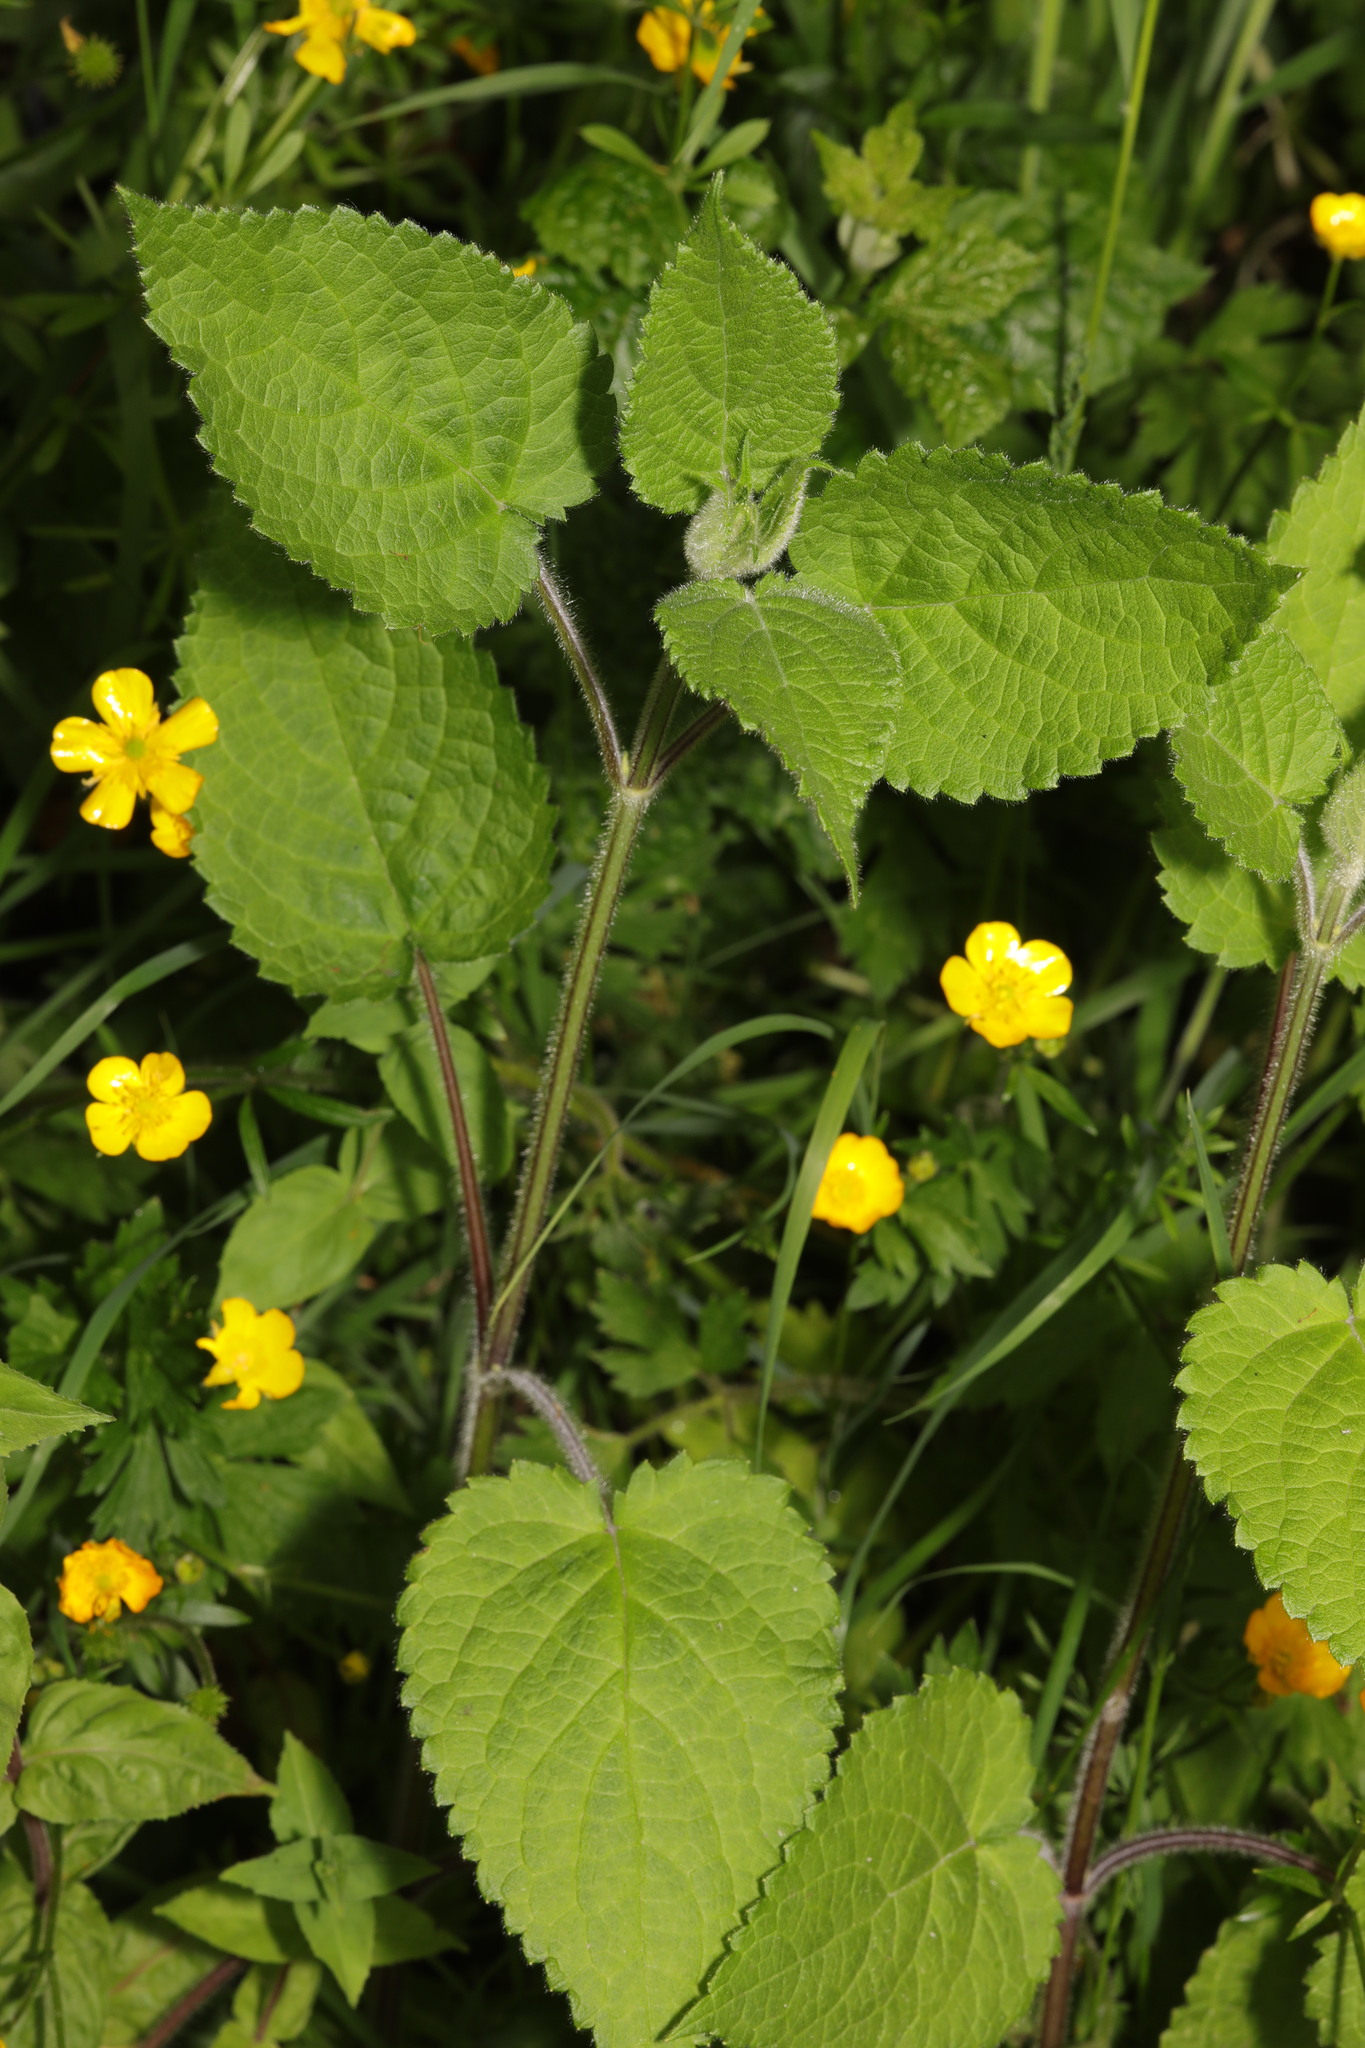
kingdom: Plantae
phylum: Tracheophyta
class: Magnoliopsida
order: Lamiales
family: Lamiaceae
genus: Stachys
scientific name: Stachys sylvatica
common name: Hedge woundwort
